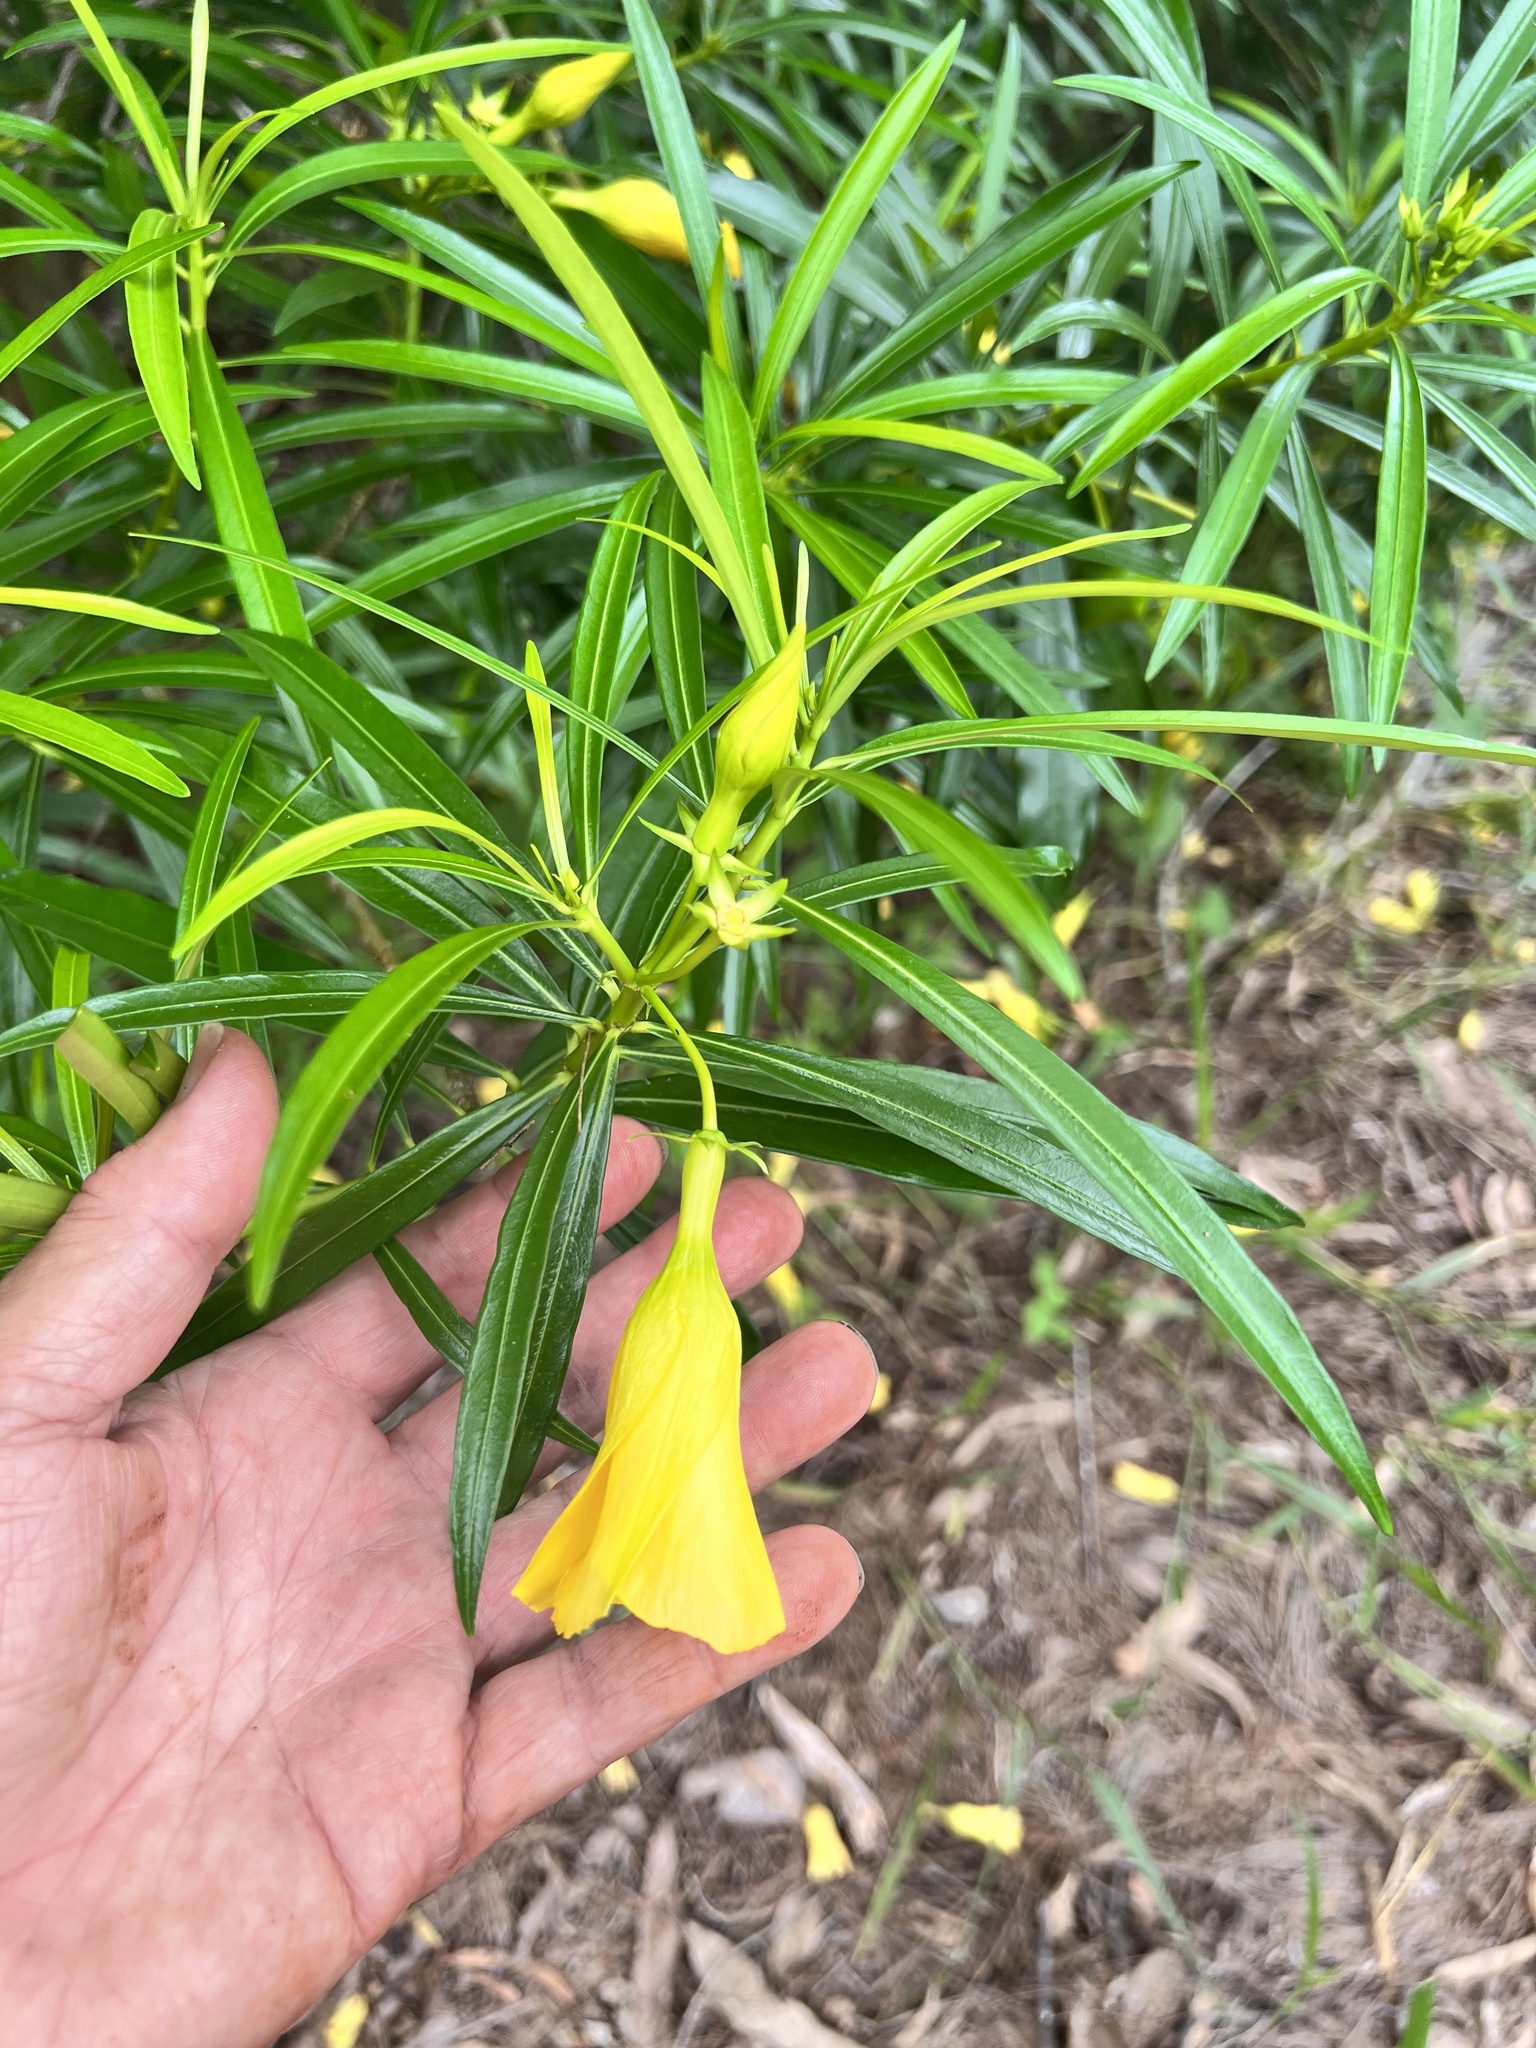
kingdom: Plantae
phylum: Tracheophyta
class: Magnoliopsida
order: Gentianales
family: Apocynaceae
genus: Cascabela
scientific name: Cascabela thevetia
